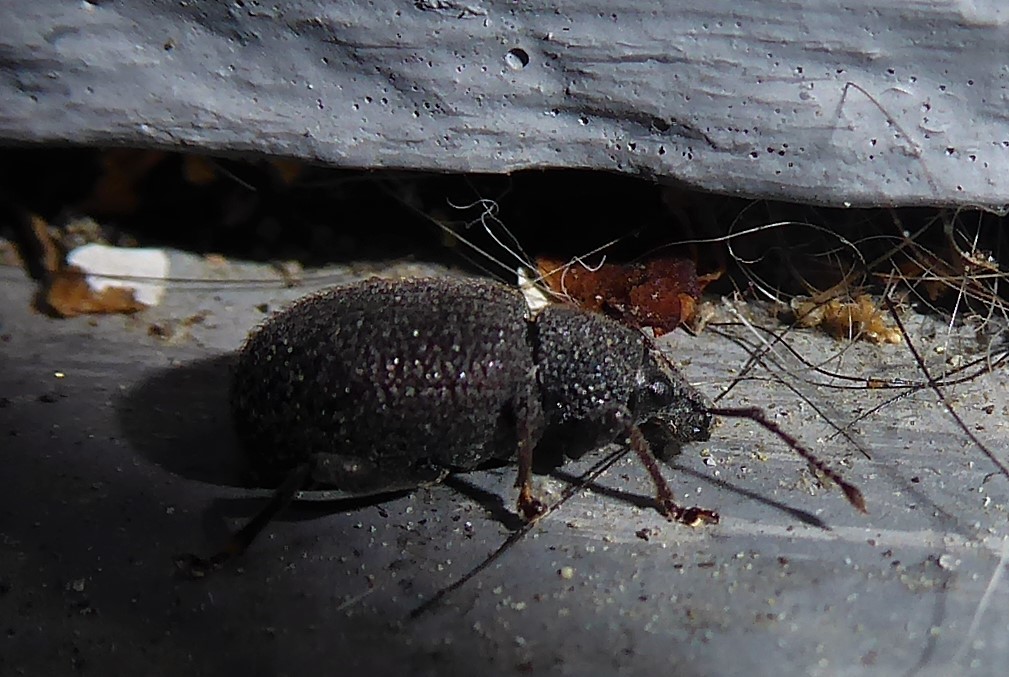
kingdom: Animalia
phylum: Arthropoda
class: Insecta
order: Coleoptera
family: Curculionidae
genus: Otiorhynchus
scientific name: Otiorhynchus rugosostriatus
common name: Weevil
